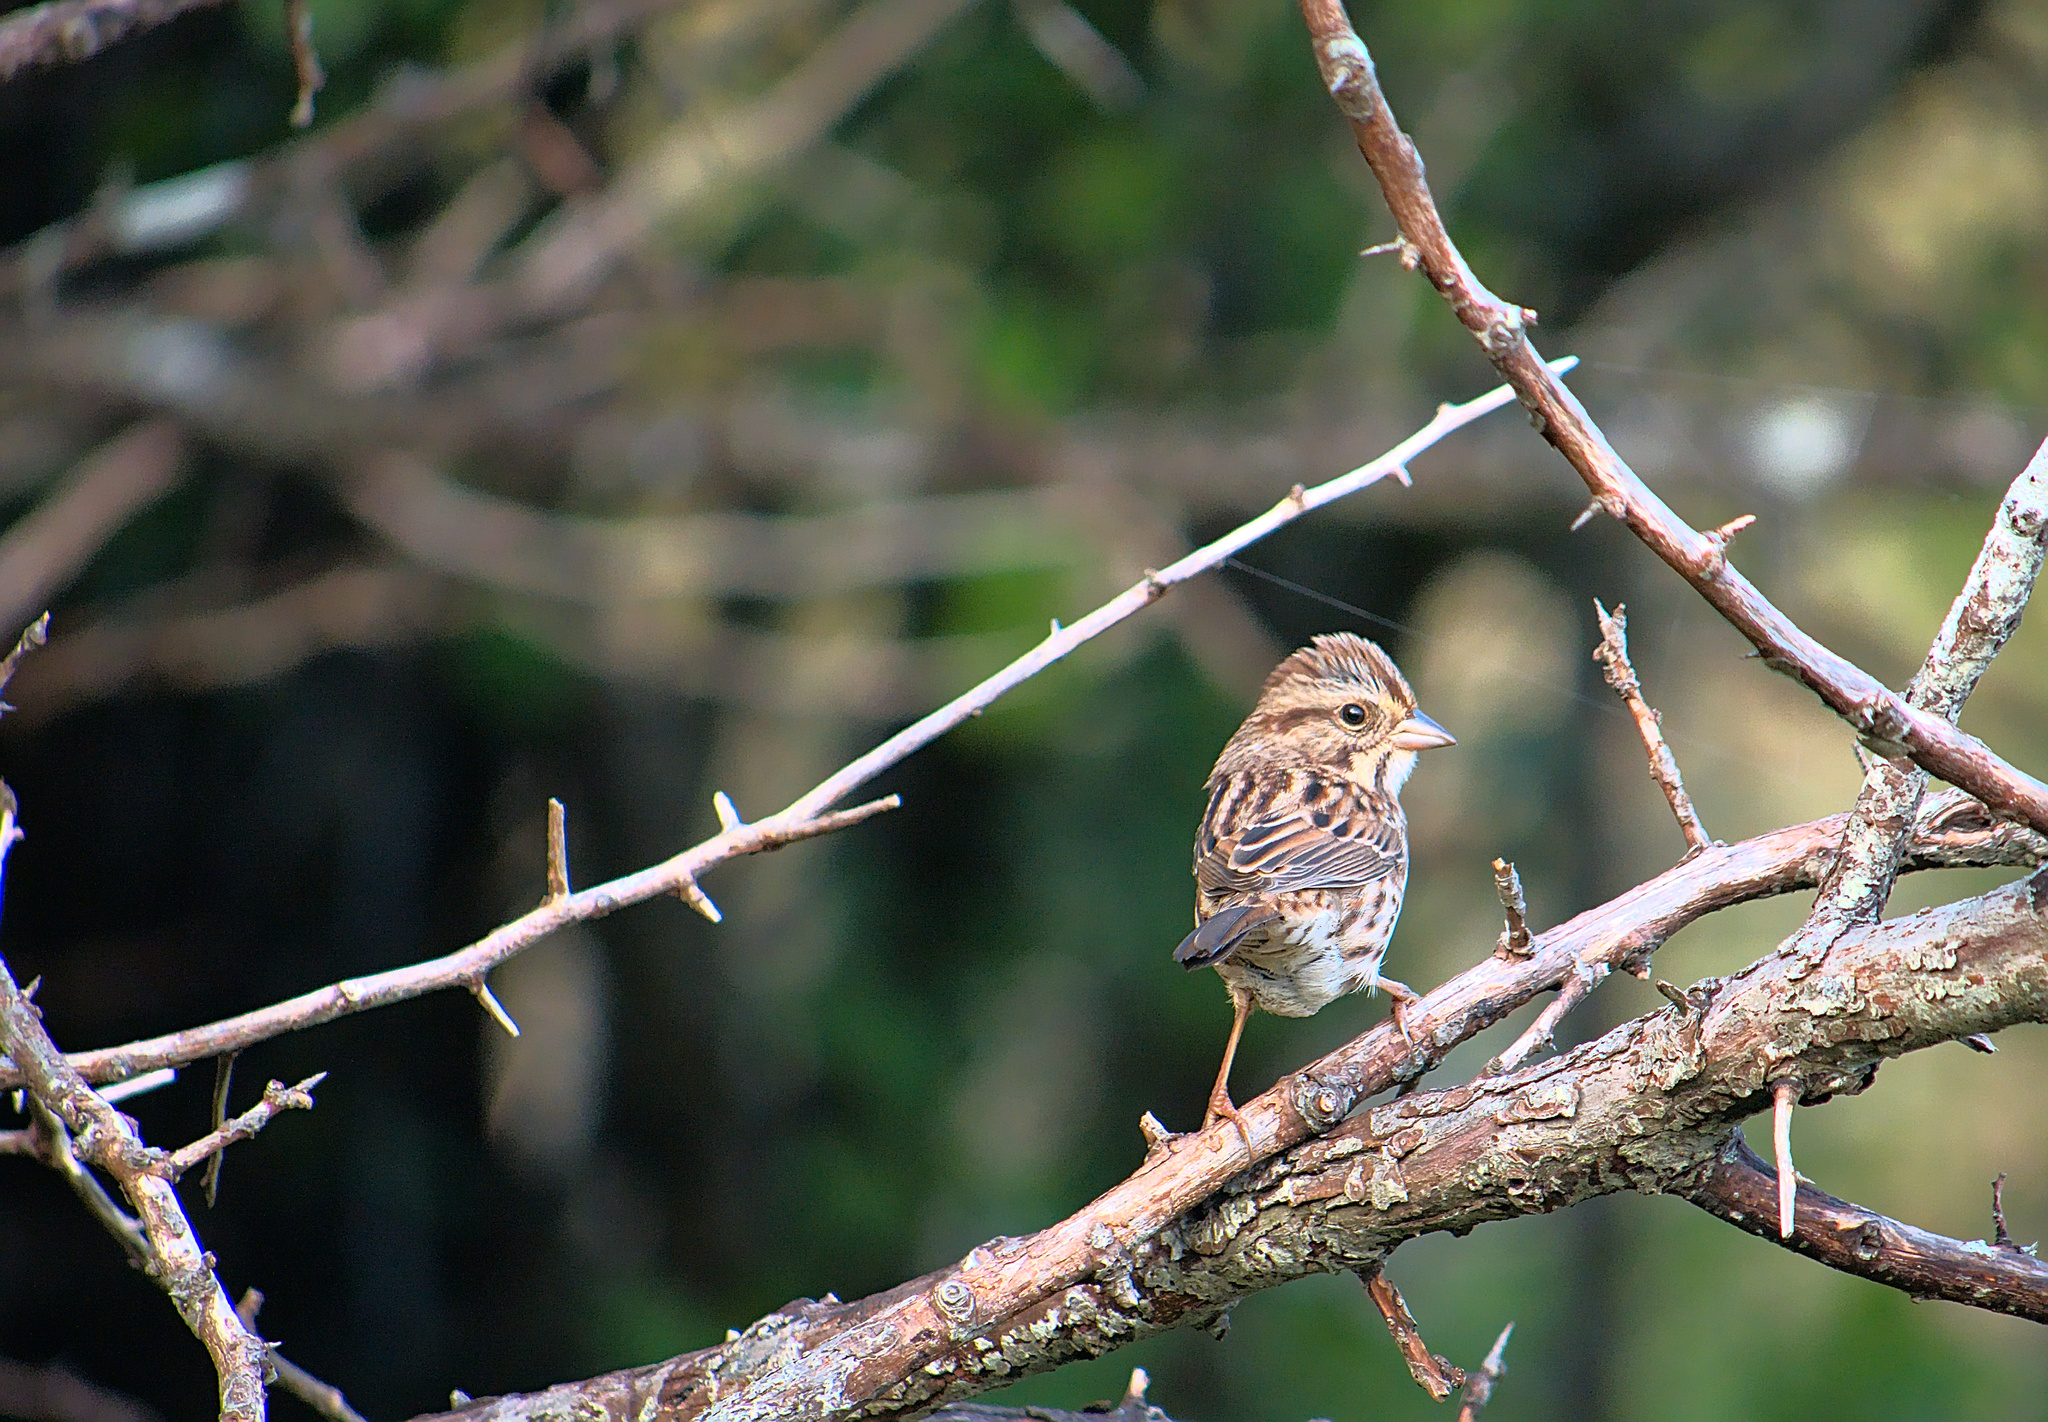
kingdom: Animalia
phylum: Chordata
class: Aves
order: Passeriformes
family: Passerellidae
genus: Melospiza
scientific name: Melospiza melodia
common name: Song sparrow
